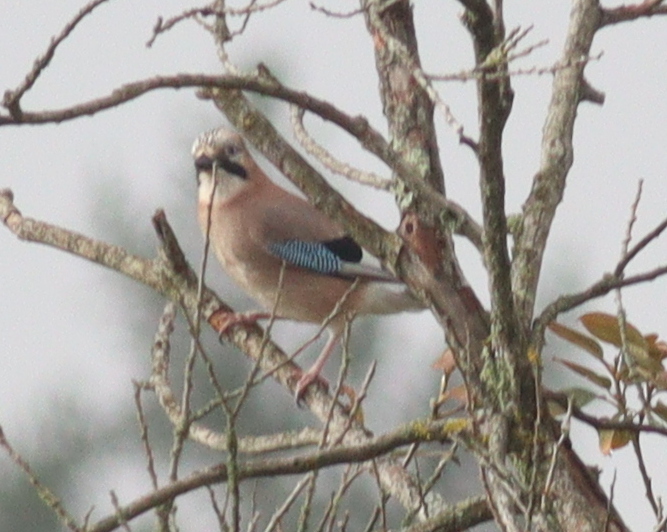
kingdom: Animalia
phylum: Chordata
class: Aves
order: Passeriformes
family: Corvidae
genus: Garrulus
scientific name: Garrulus glandarius
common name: Eurasian jay
